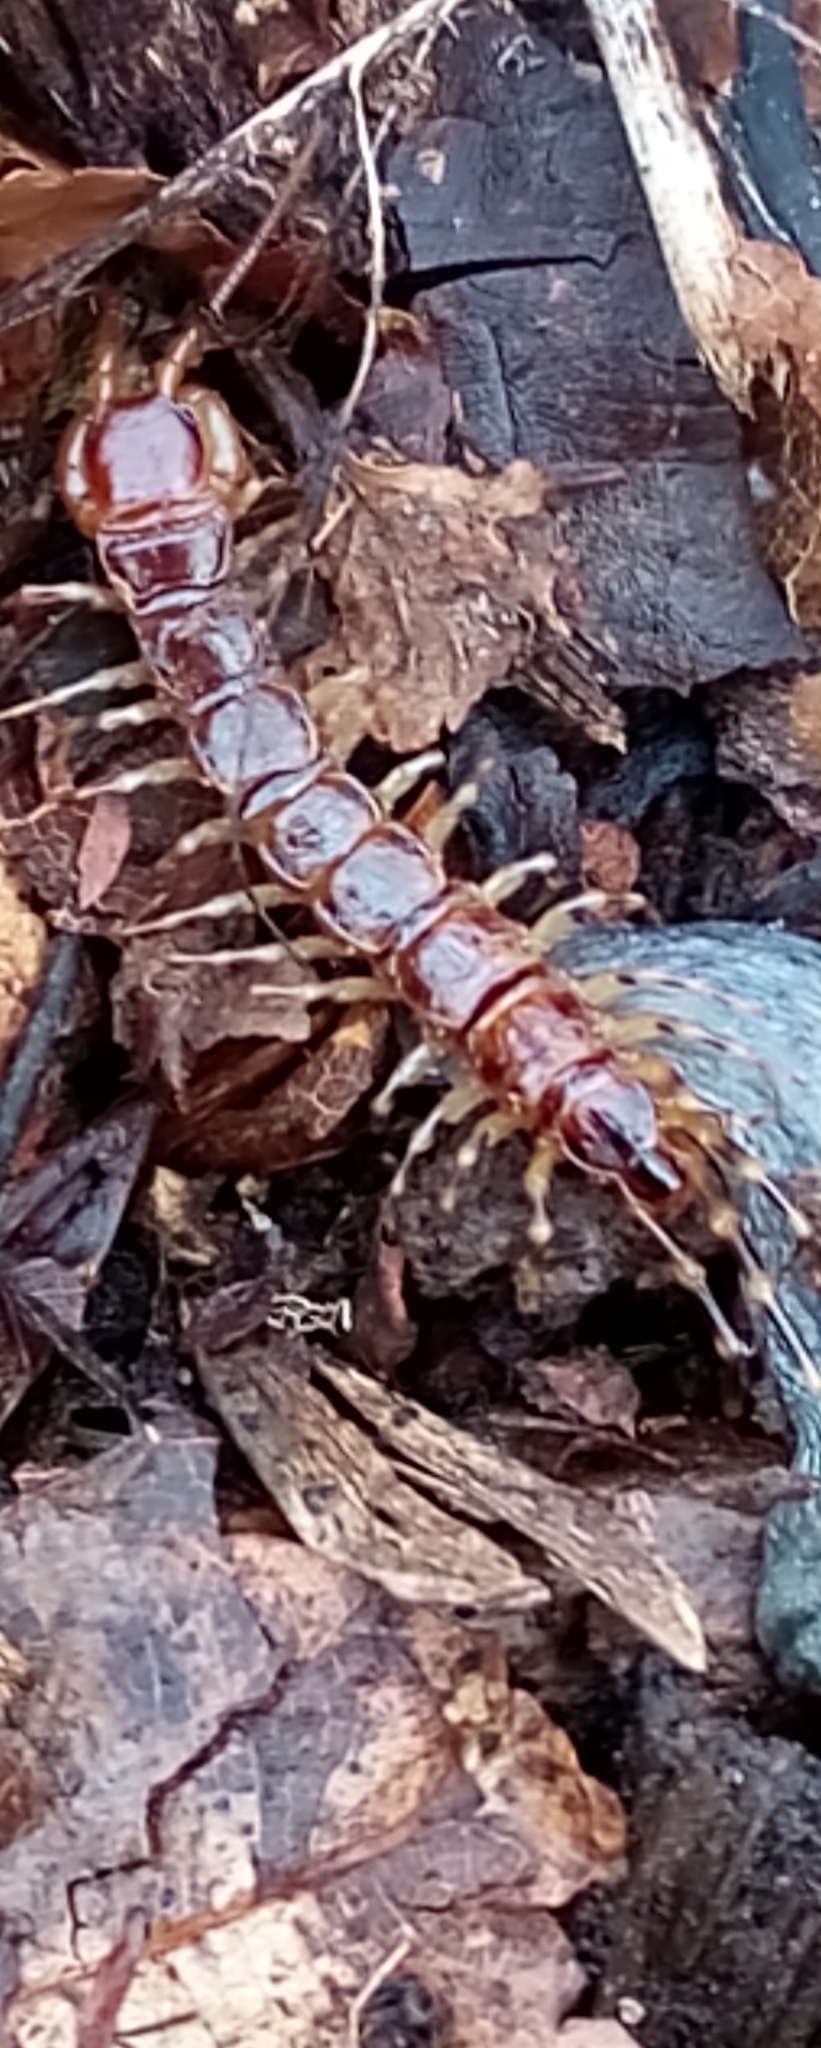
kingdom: Animalia
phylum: Arthropoda
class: Chilopoda
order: Lithobiomorpha
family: Lithobiidae
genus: Lithobius
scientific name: Lithobius variegatus
